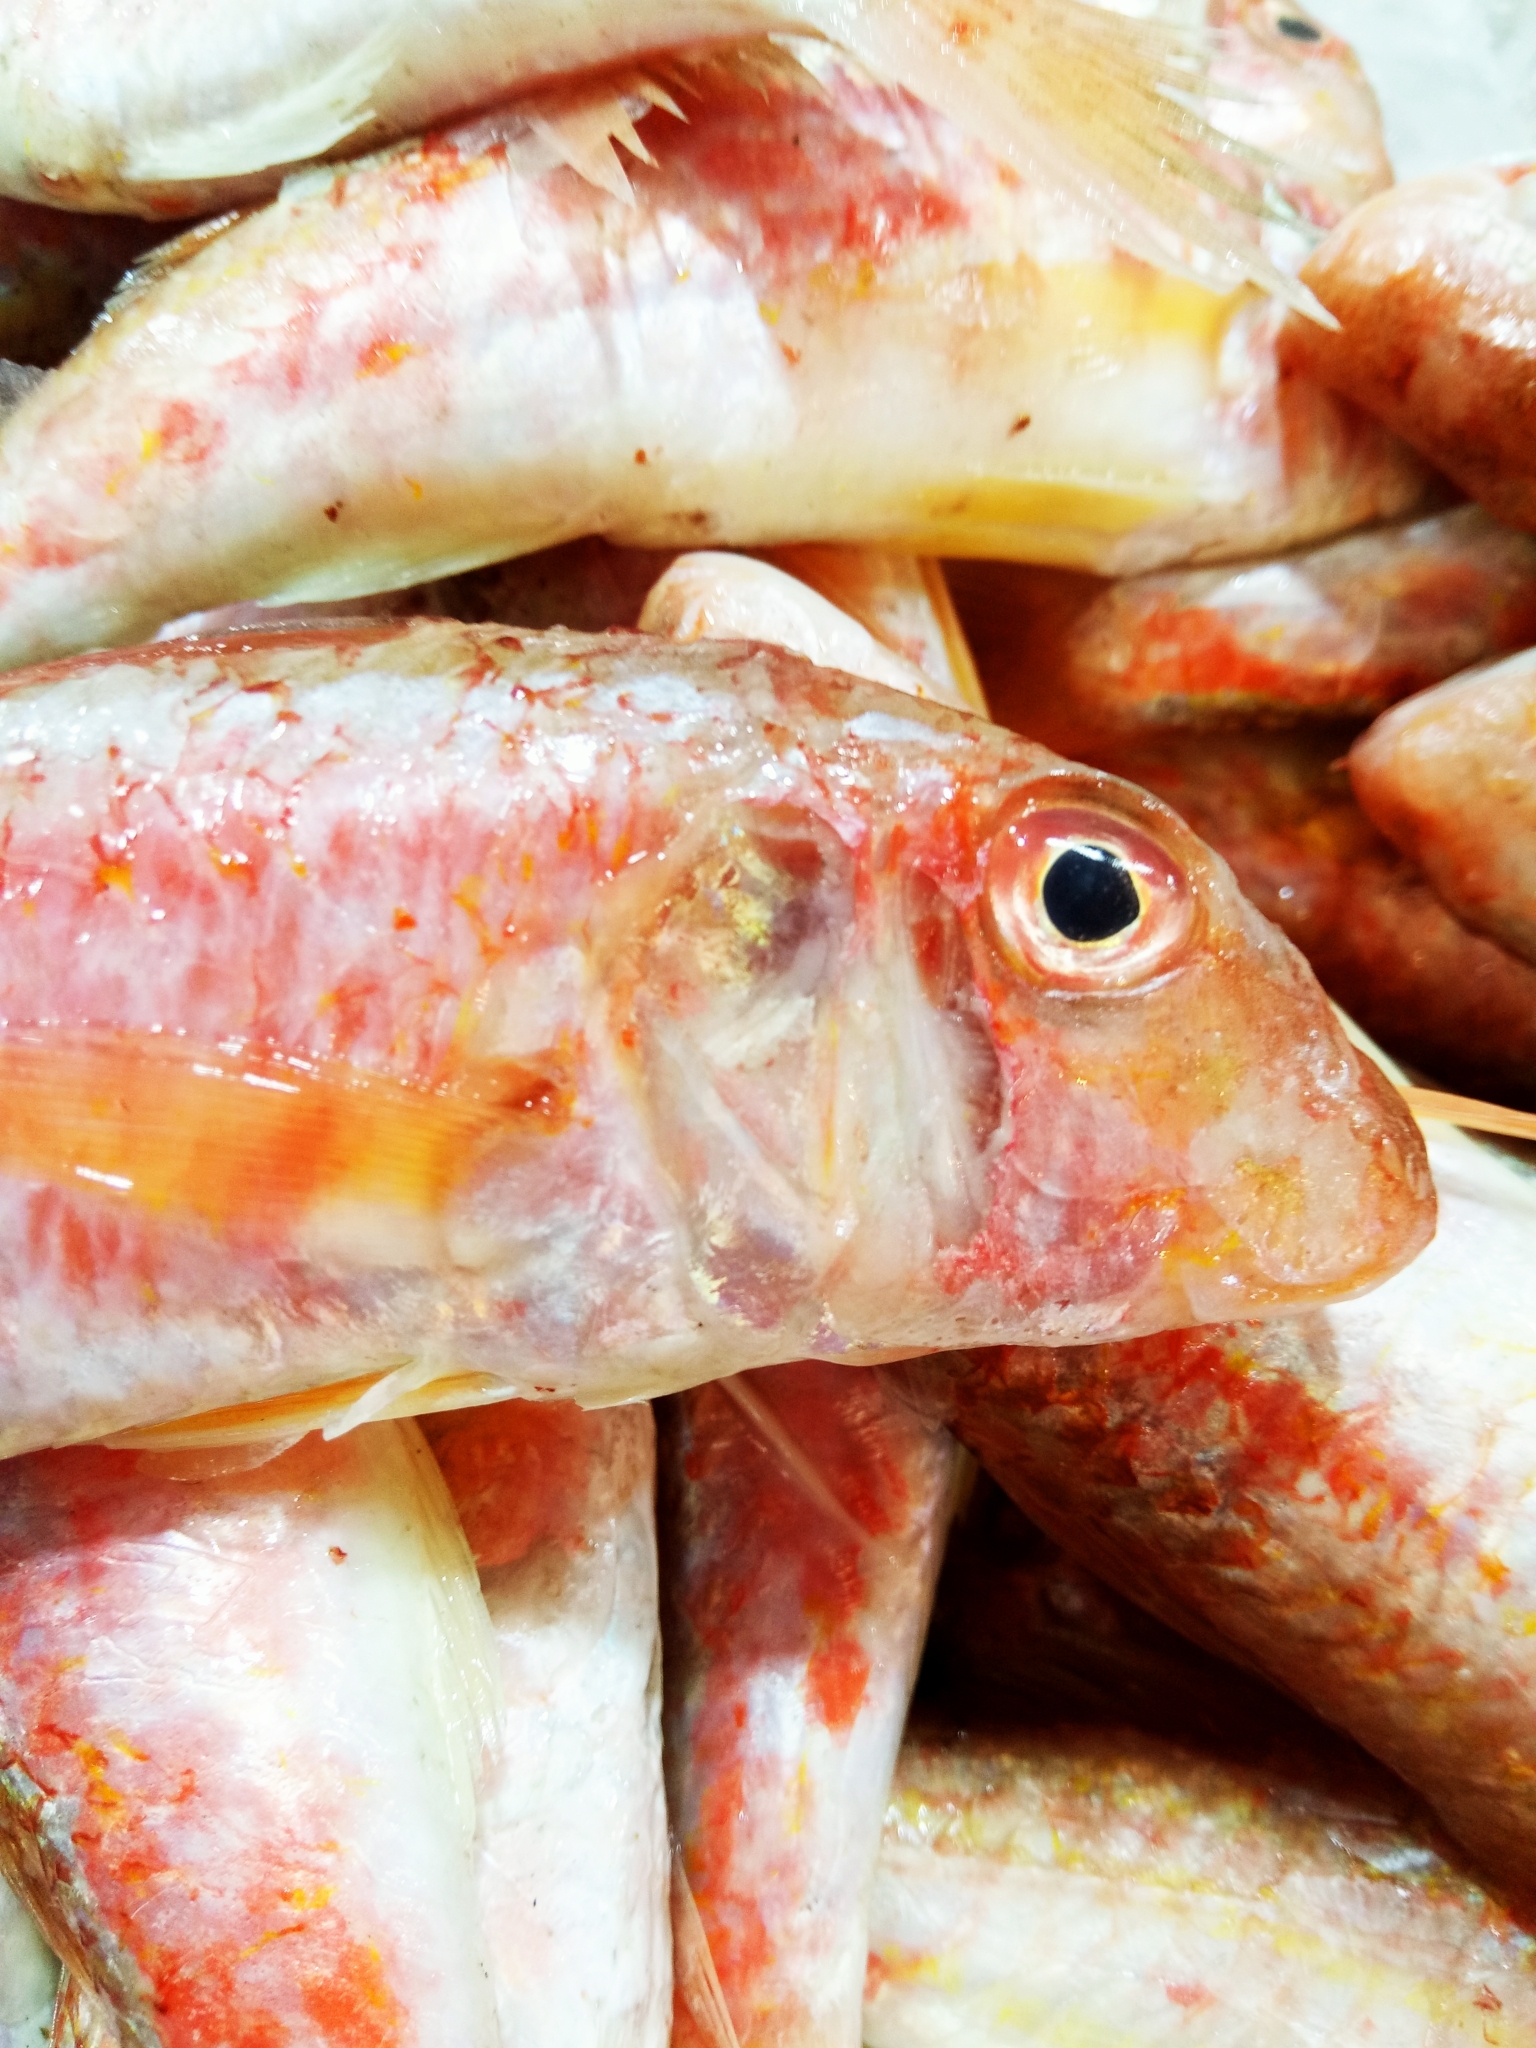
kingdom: Animalia
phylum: Chordata
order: Perciformes
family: Mullidae
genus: Mullus
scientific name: Mullus barbatus
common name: Blunt-snouted mullet
